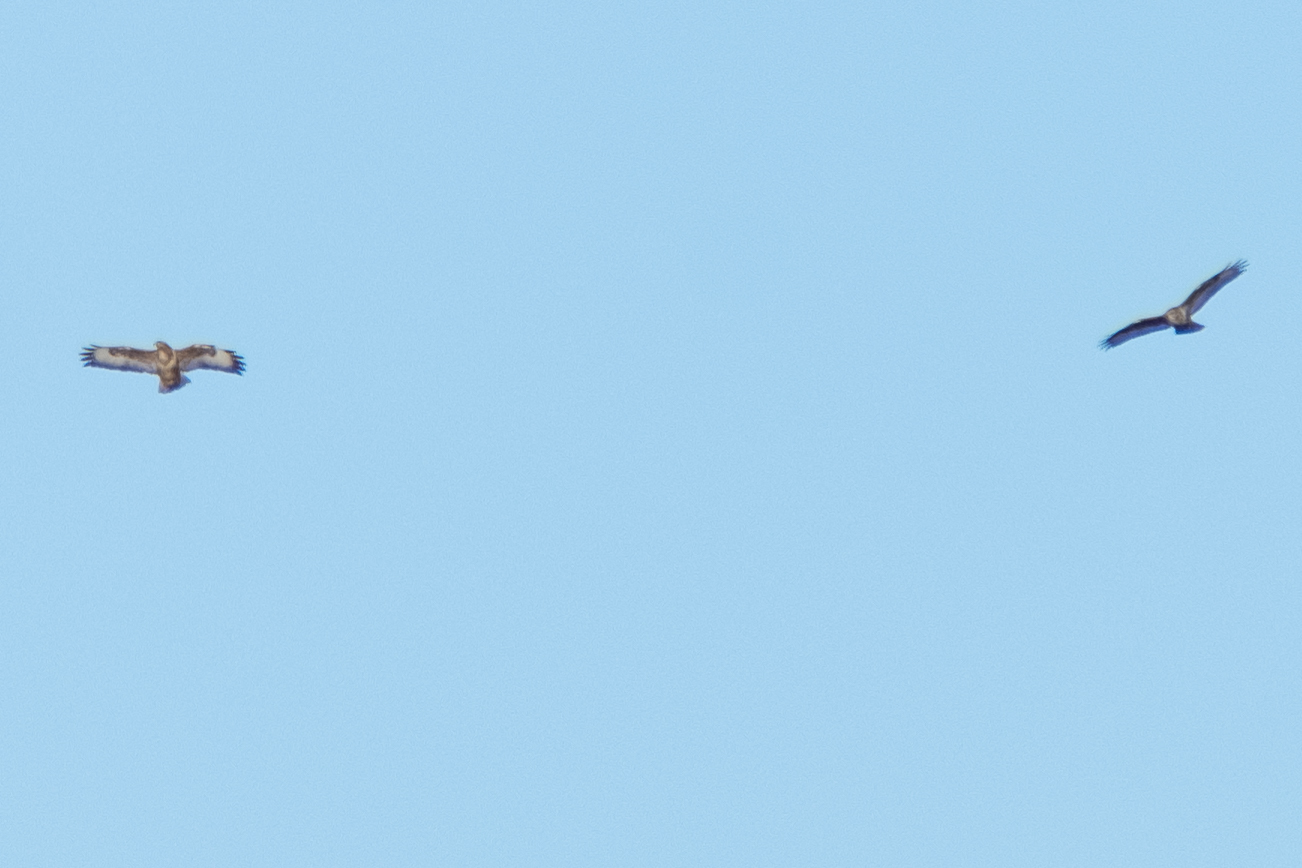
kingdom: Animalia
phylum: Chordata
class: Aves
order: Accipitriformes
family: Accipitridae
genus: Buteo
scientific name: Buteo buteo
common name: Common buzzard
